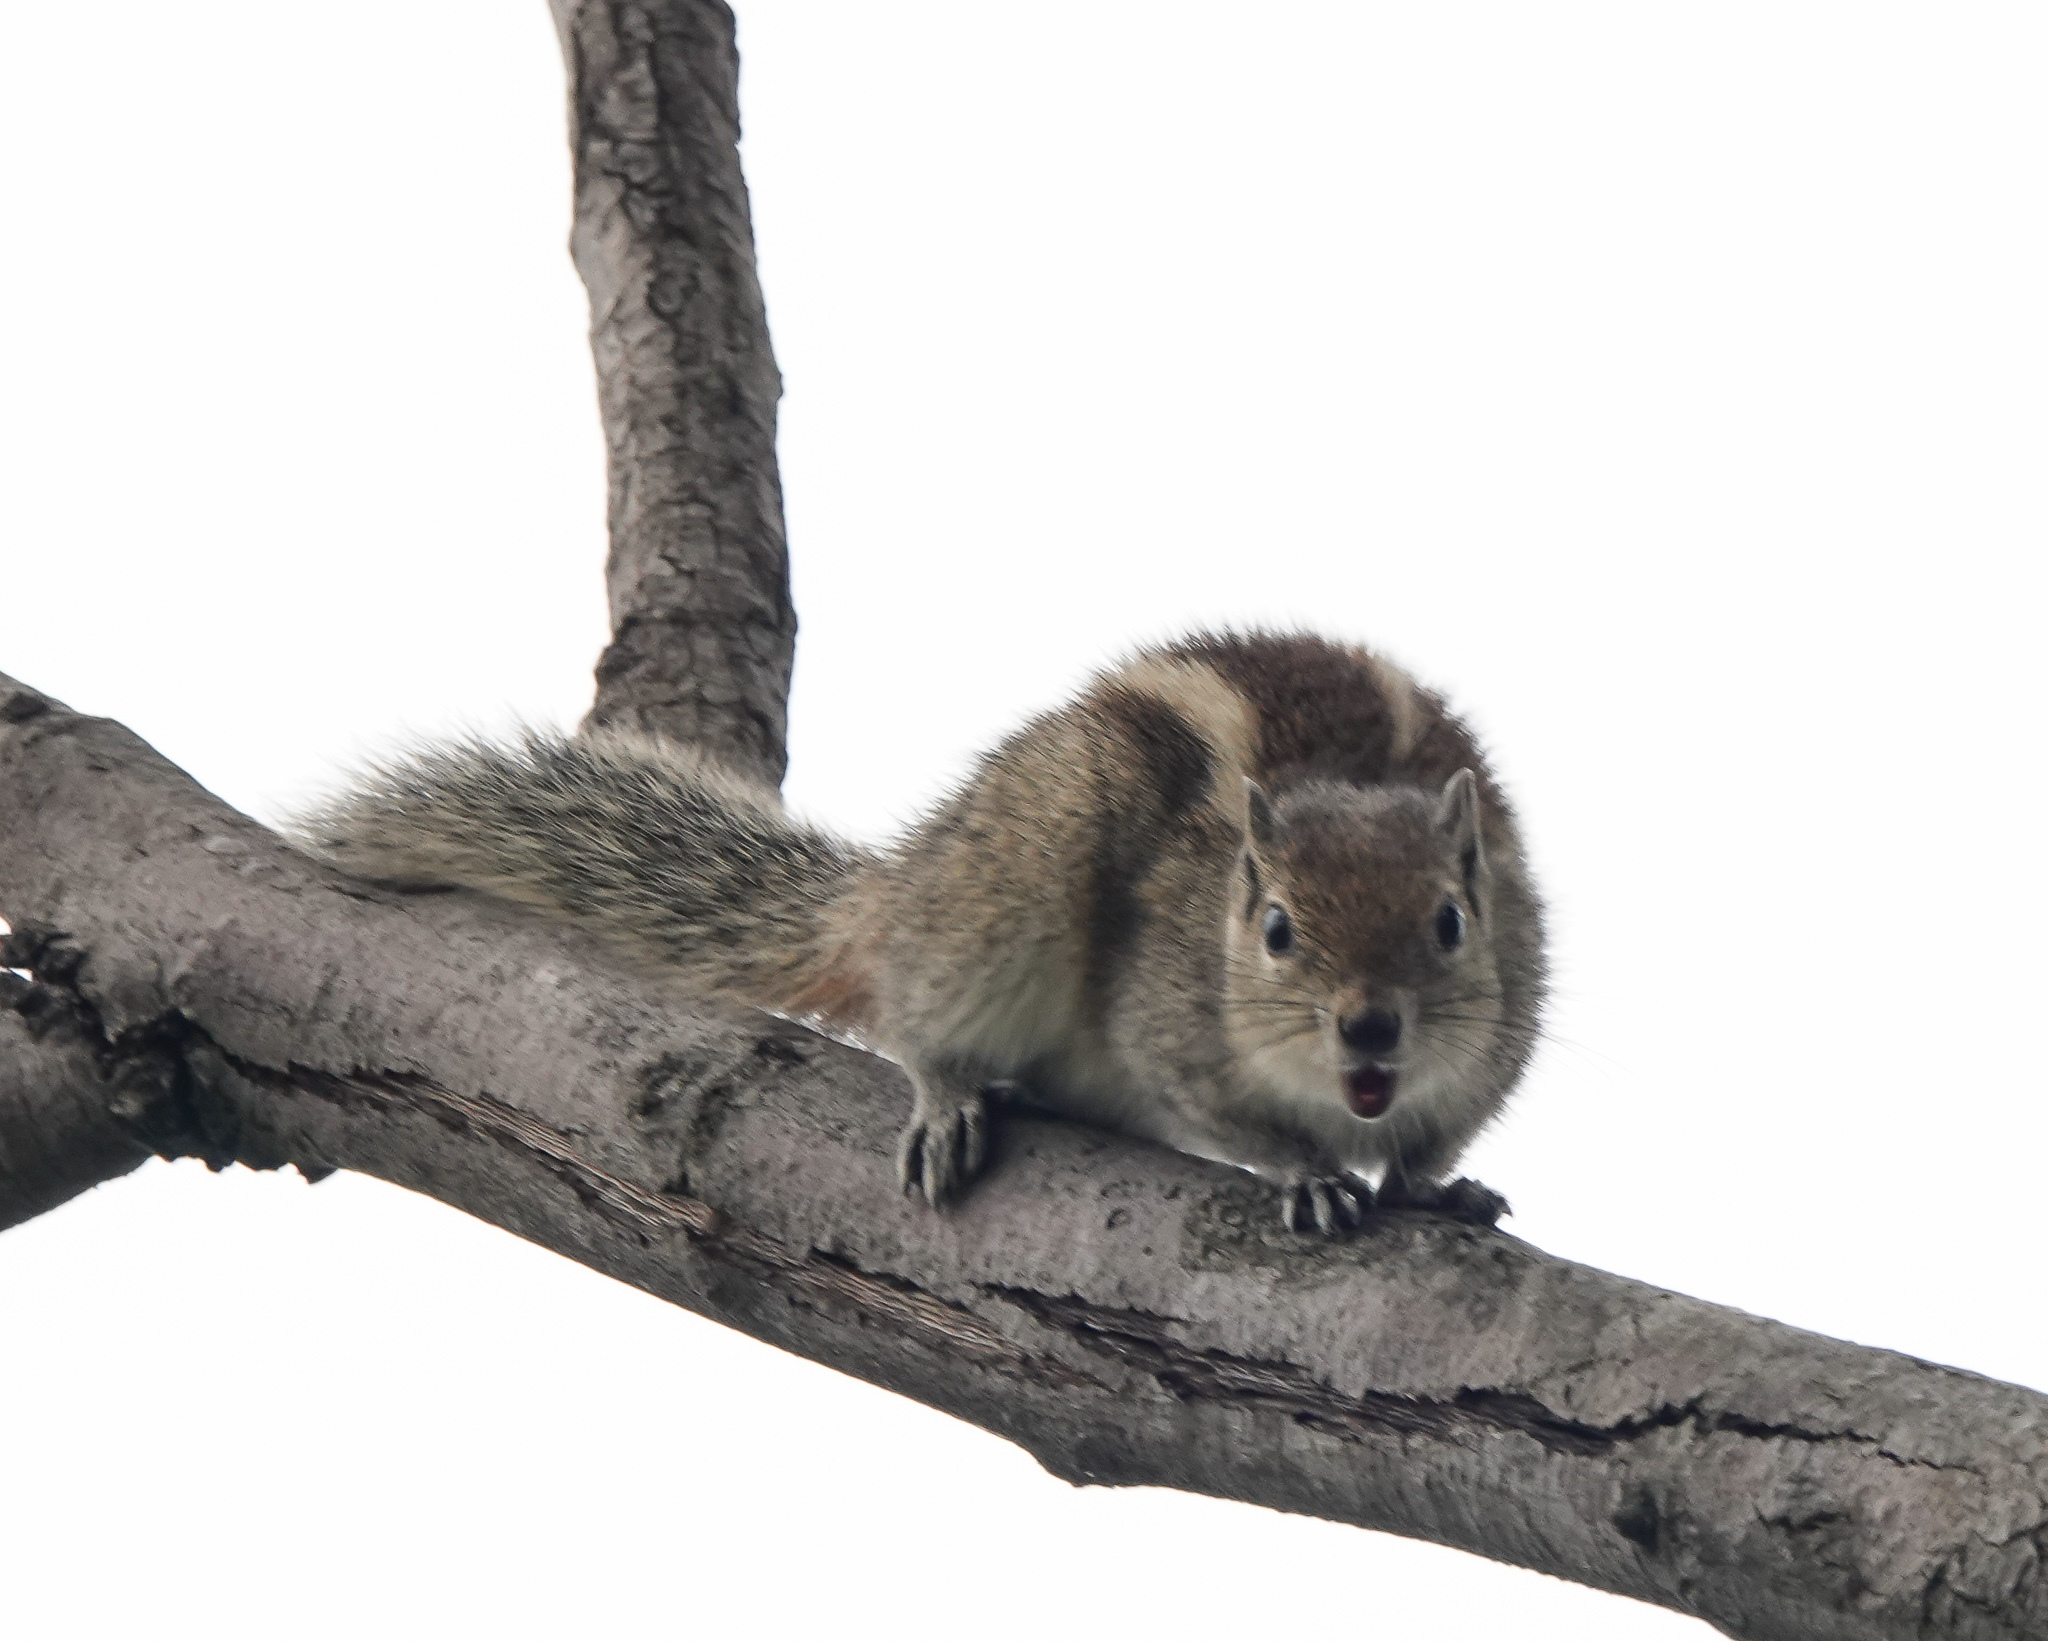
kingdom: Animalia
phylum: Chordata
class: Mammalia
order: Rodentia
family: Sciuridae
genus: Funambulus
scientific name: Funambulus palmarum
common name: Indian palm squirrel
